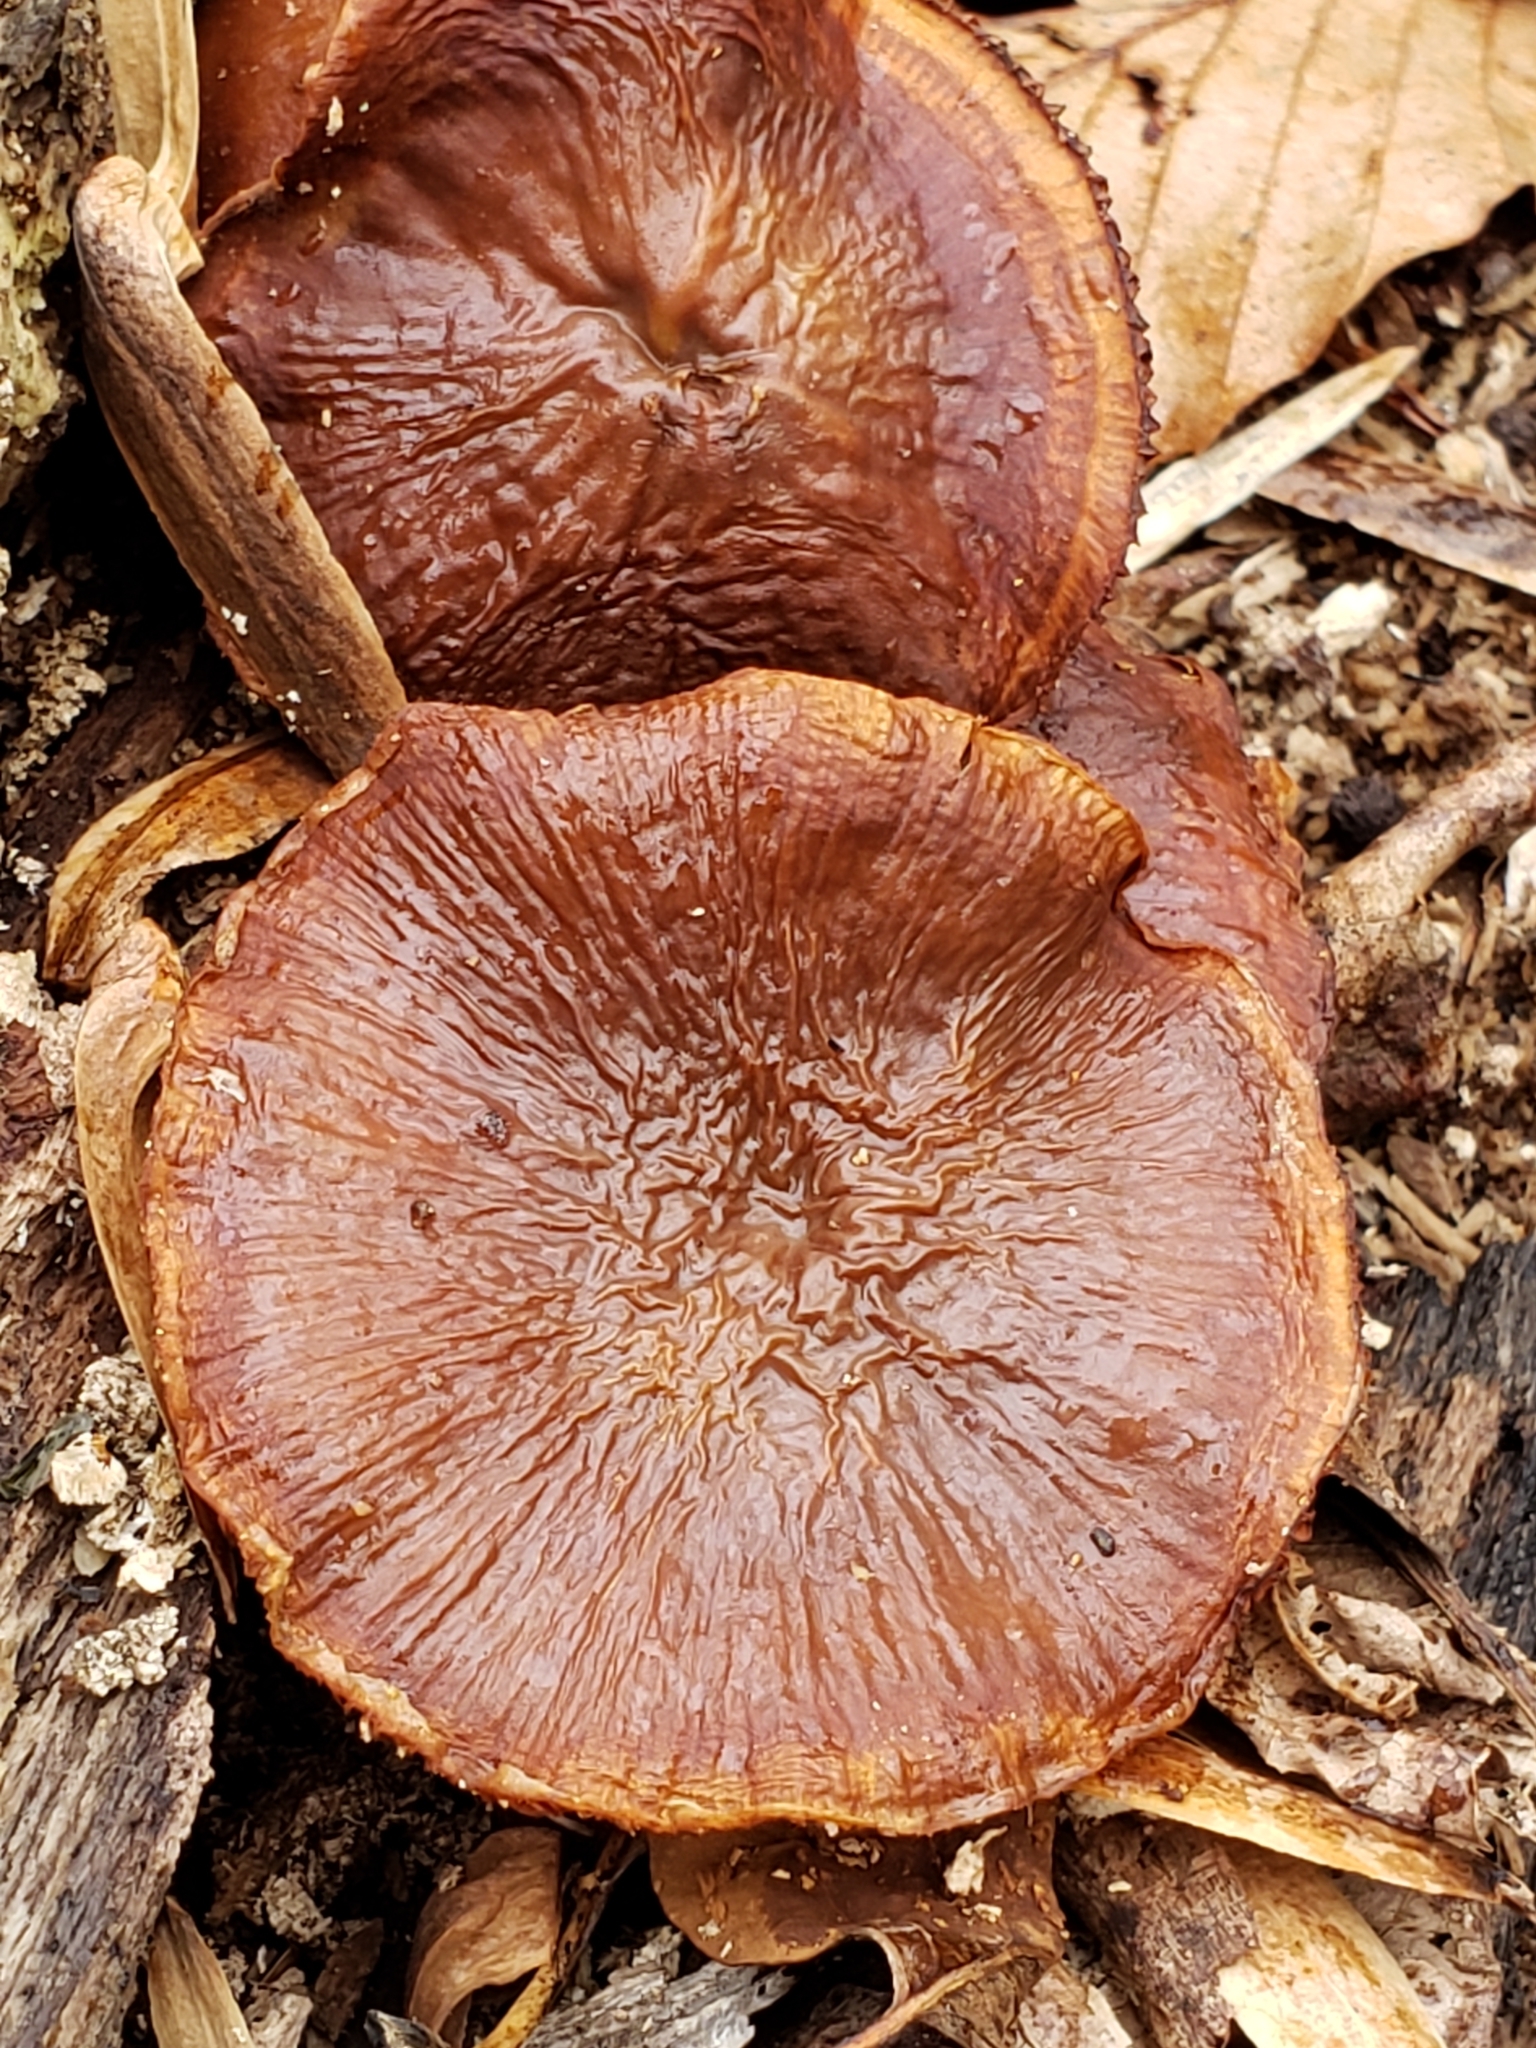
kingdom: Fungi
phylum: Basidiomycota
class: Agaricomycetes
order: Agaricales
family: Hymenogastraceae
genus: Galerina
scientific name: Galerina marginata
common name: Funeral bell
